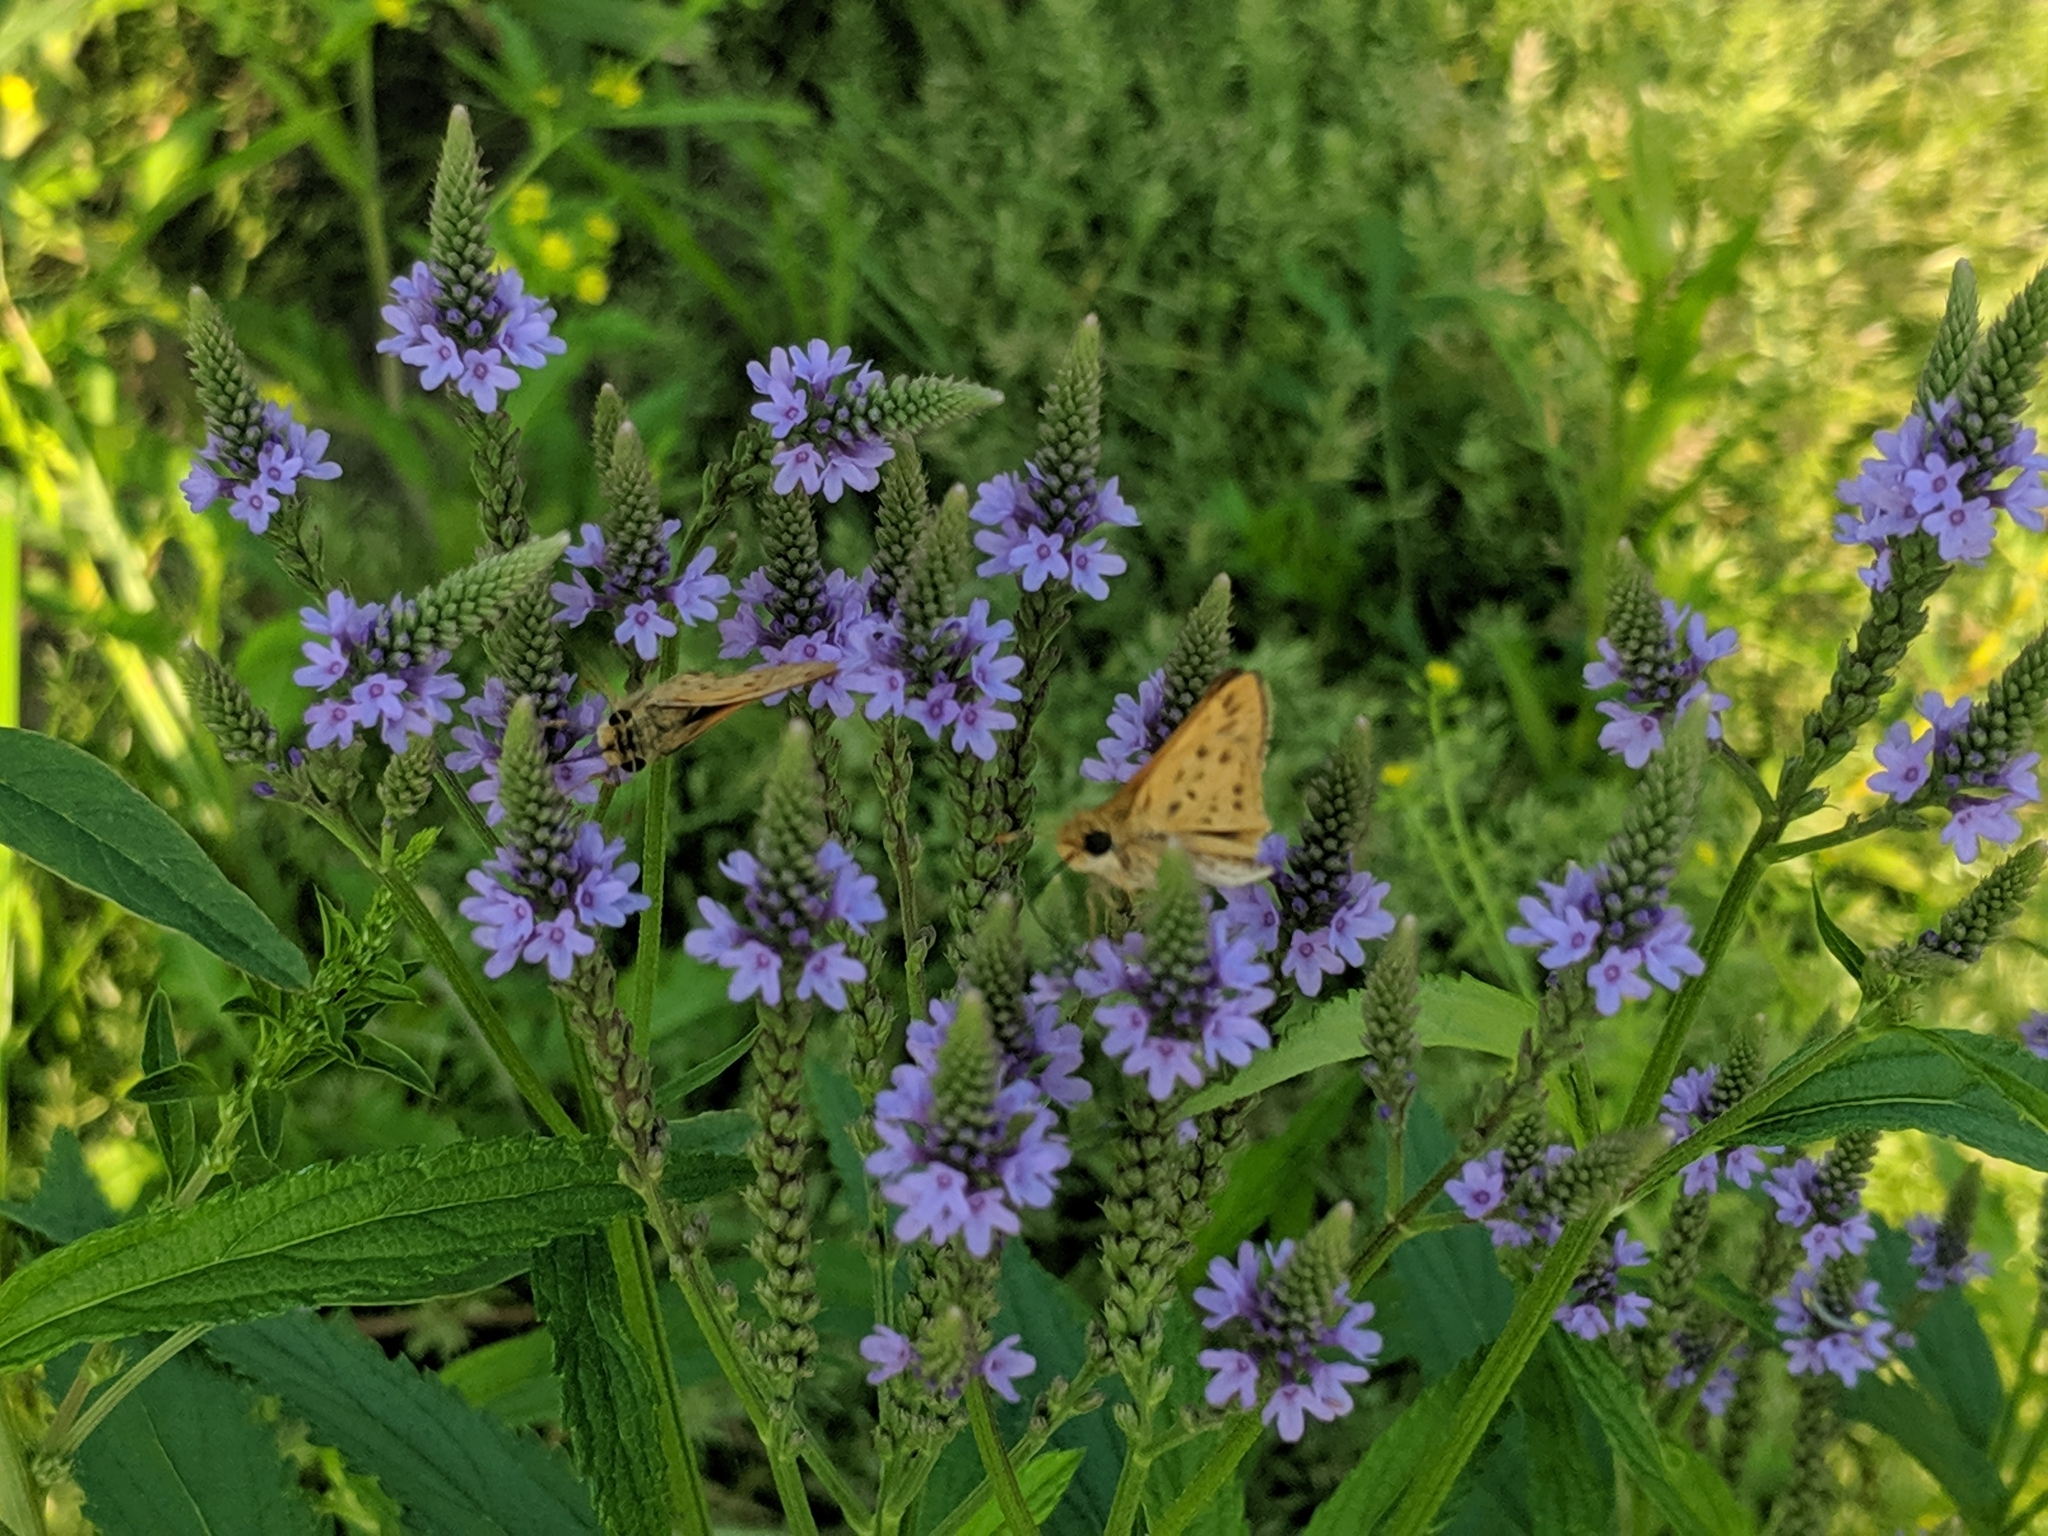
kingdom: Animalia
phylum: Arthropoda
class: Insecta
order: Lepidoptera
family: Hesperiidae
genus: Hylephila
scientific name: Hylephila phyleus
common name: Fiery skipper
